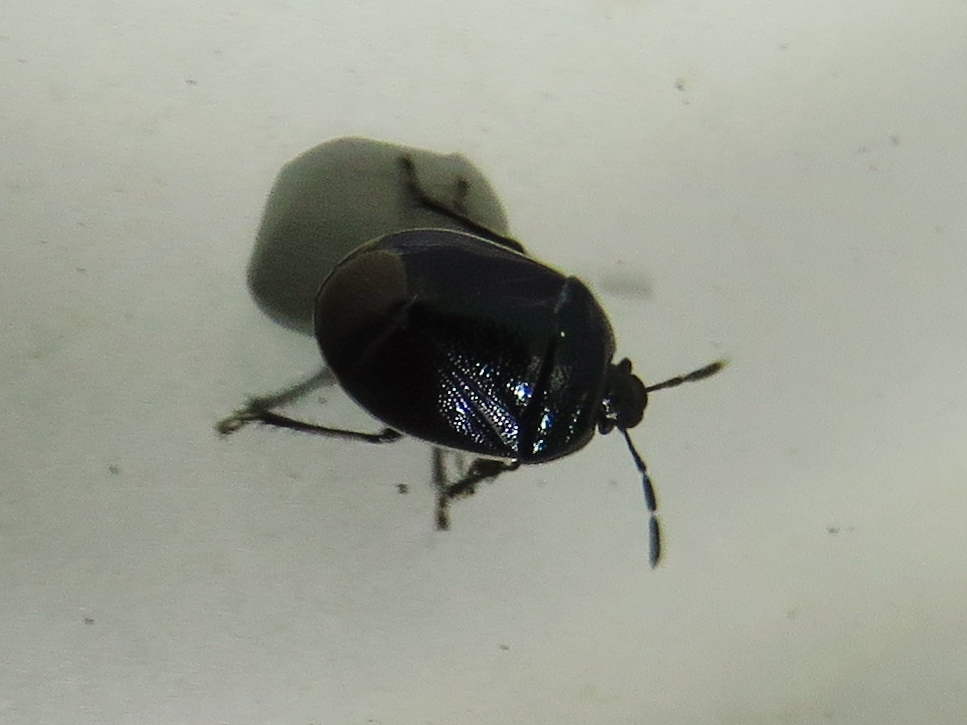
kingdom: Animalia
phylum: Arthropoda
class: Insecta
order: Hemiptera
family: Cydnidae
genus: Sehirus
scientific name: Sehirus cinctus
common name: White-margined burrower bug
